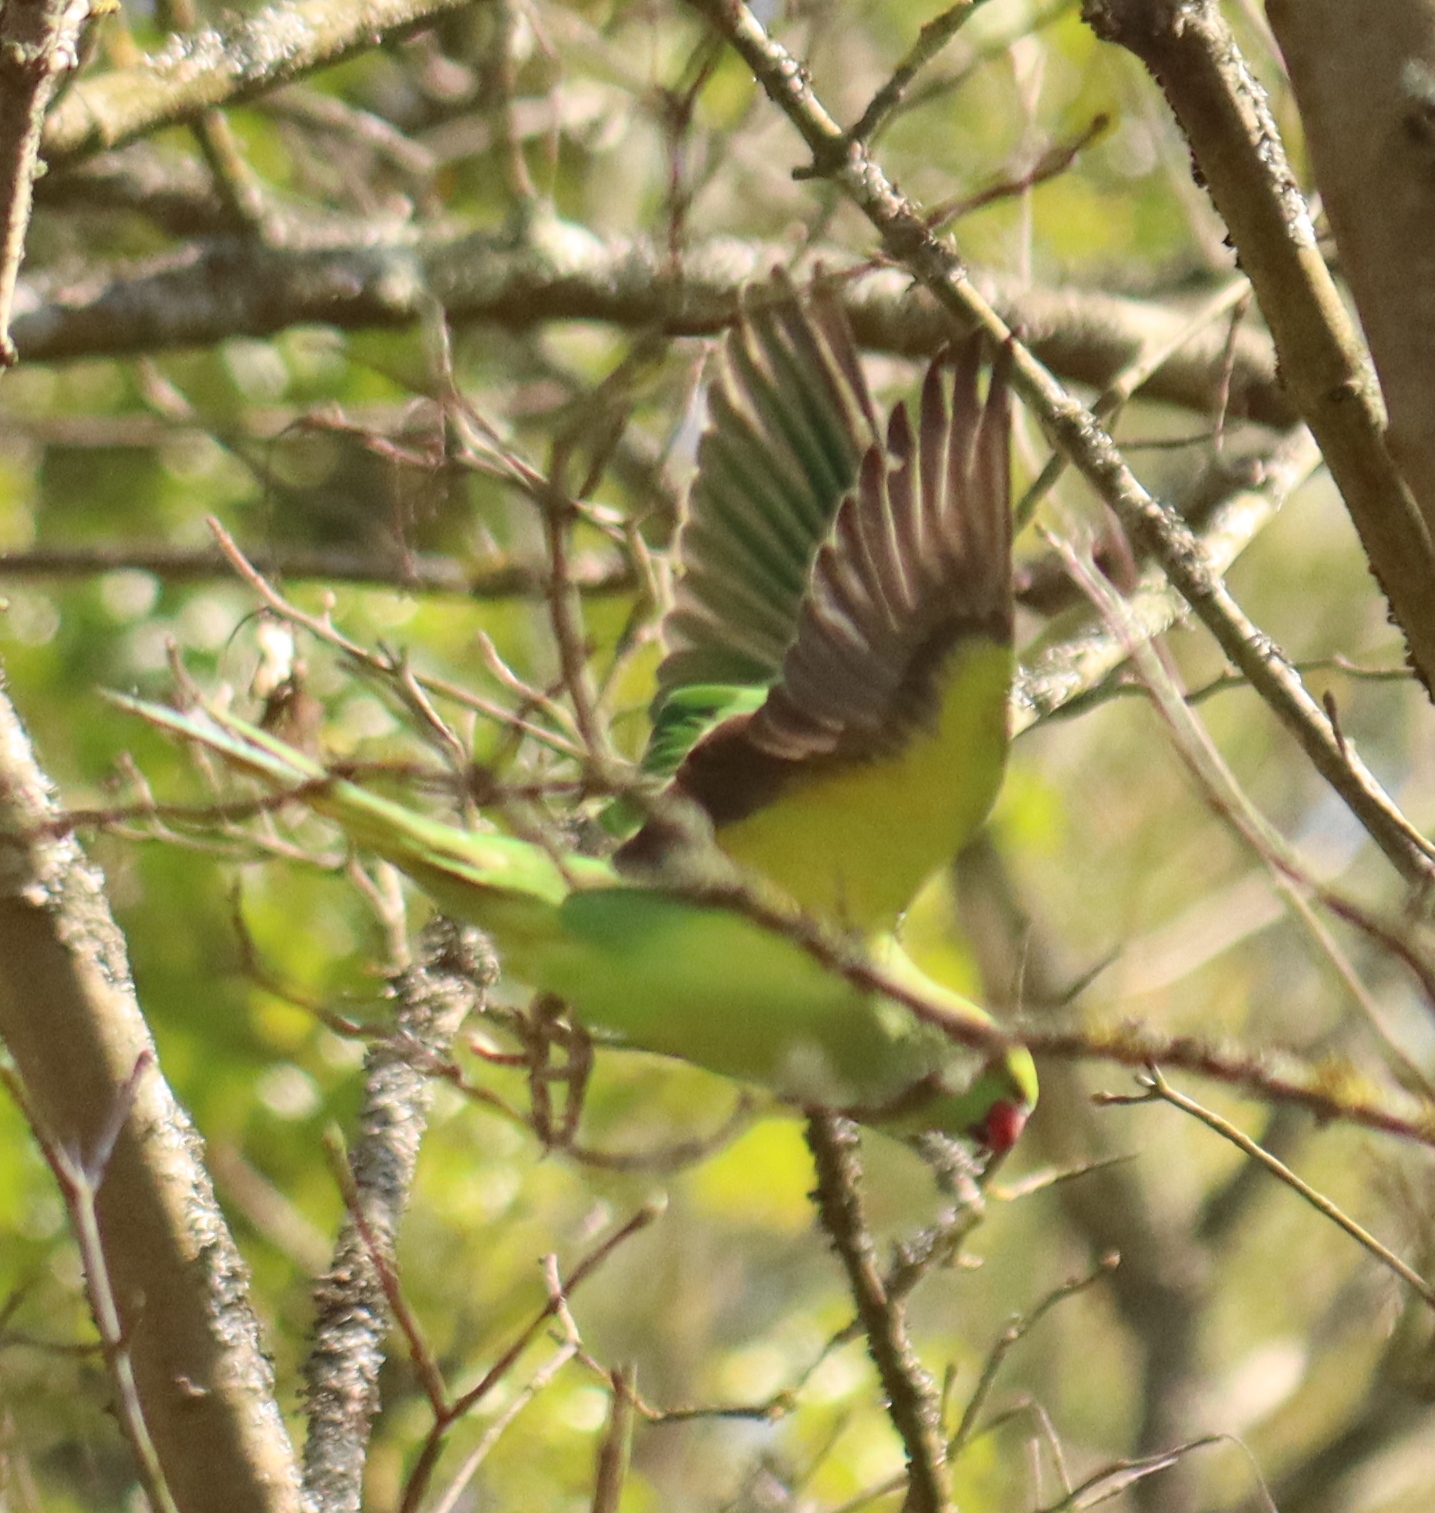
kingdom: Animalia
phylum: Chordata
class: Aves
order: Psittaciformes
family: Psittacidae
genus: Psittacula
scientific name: Psittacula krameri
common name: Rose-ringed parakeet
